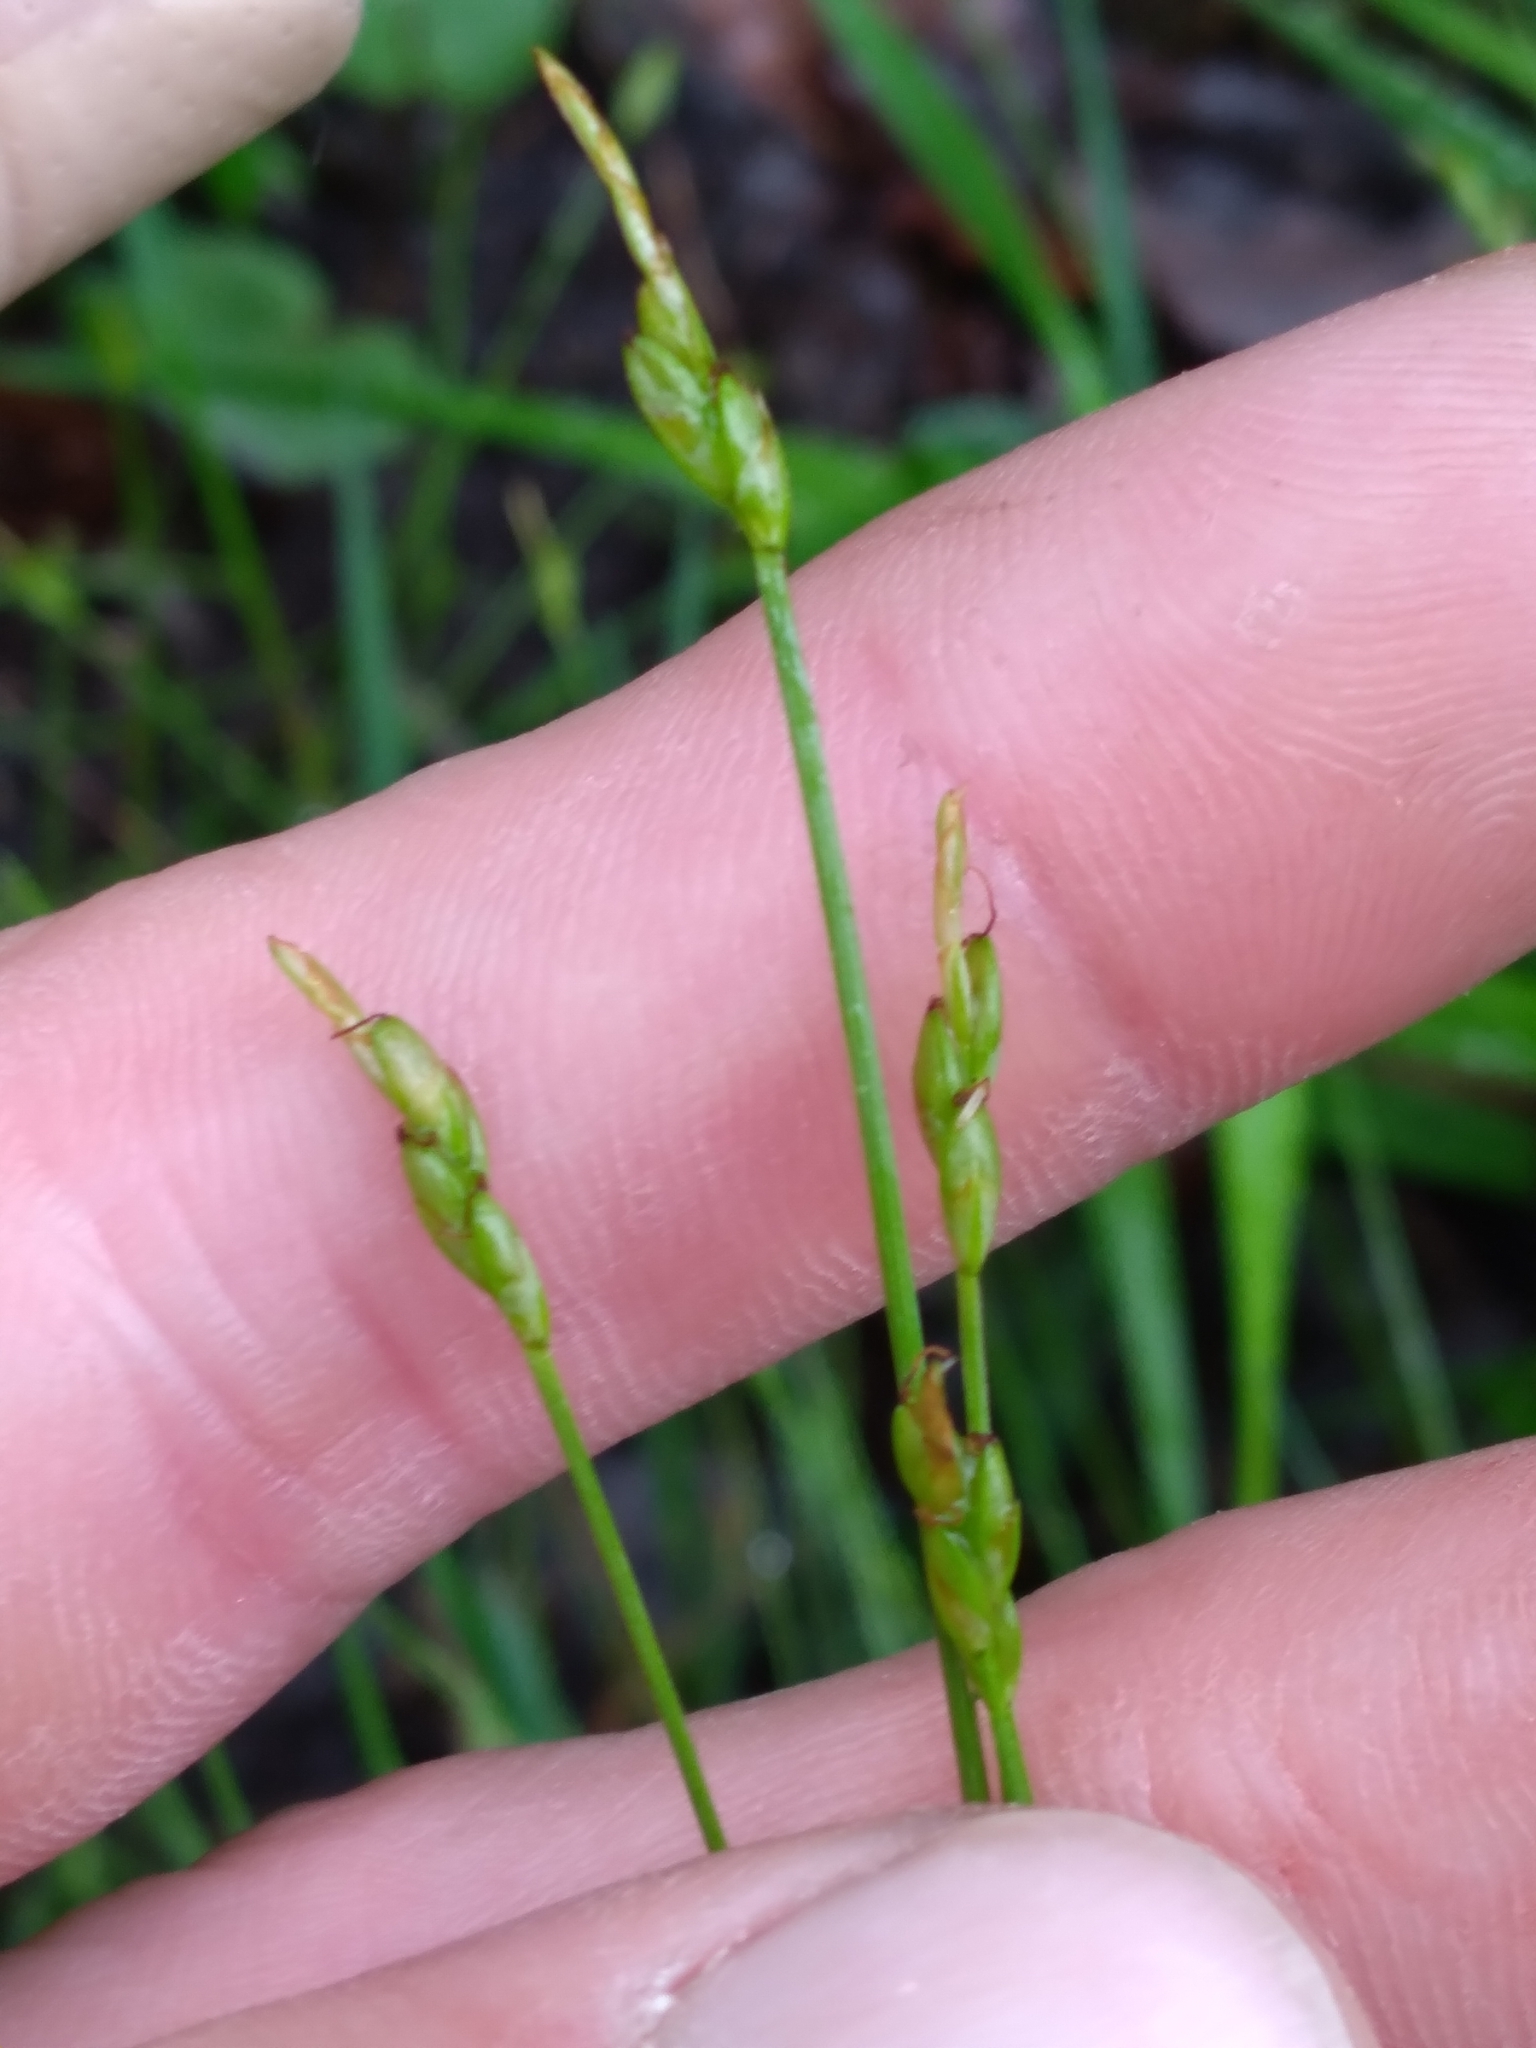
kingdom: Plantae
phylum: Tracheophyta
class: Liliopsida
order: Poales
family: Cyperaceae
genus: Carex
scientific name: Carex leptalea
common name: Bristly-stalked sedge
